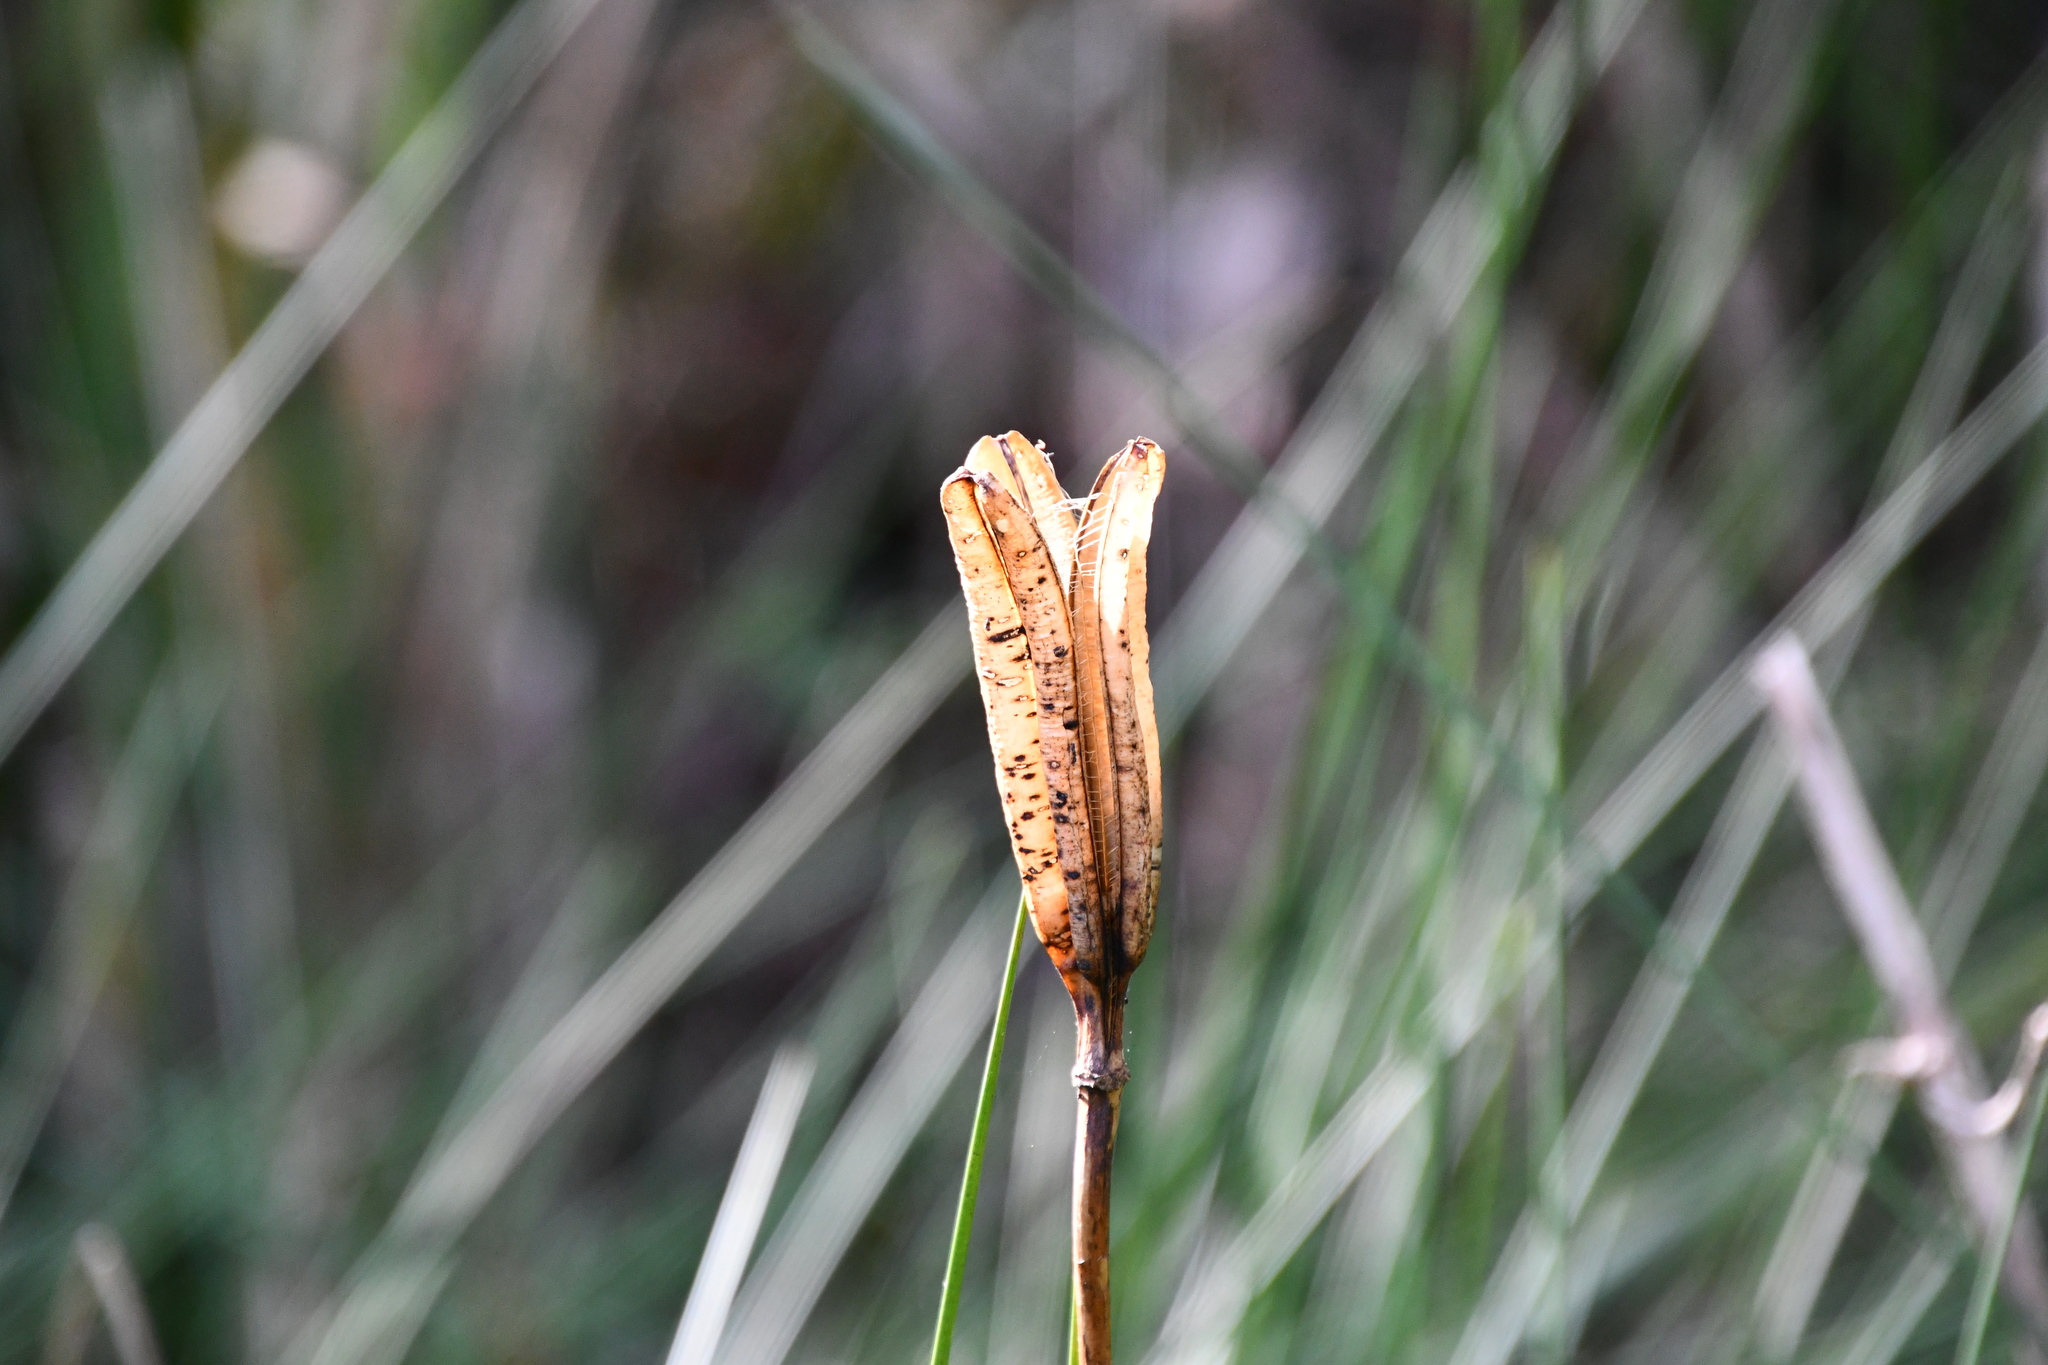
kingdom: Plantae
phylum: Tracheophyta
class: Liliopsida
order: Liliales
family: Liliaceae
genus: Lilium
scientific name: Lilium formosanum
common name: Formosa lily
